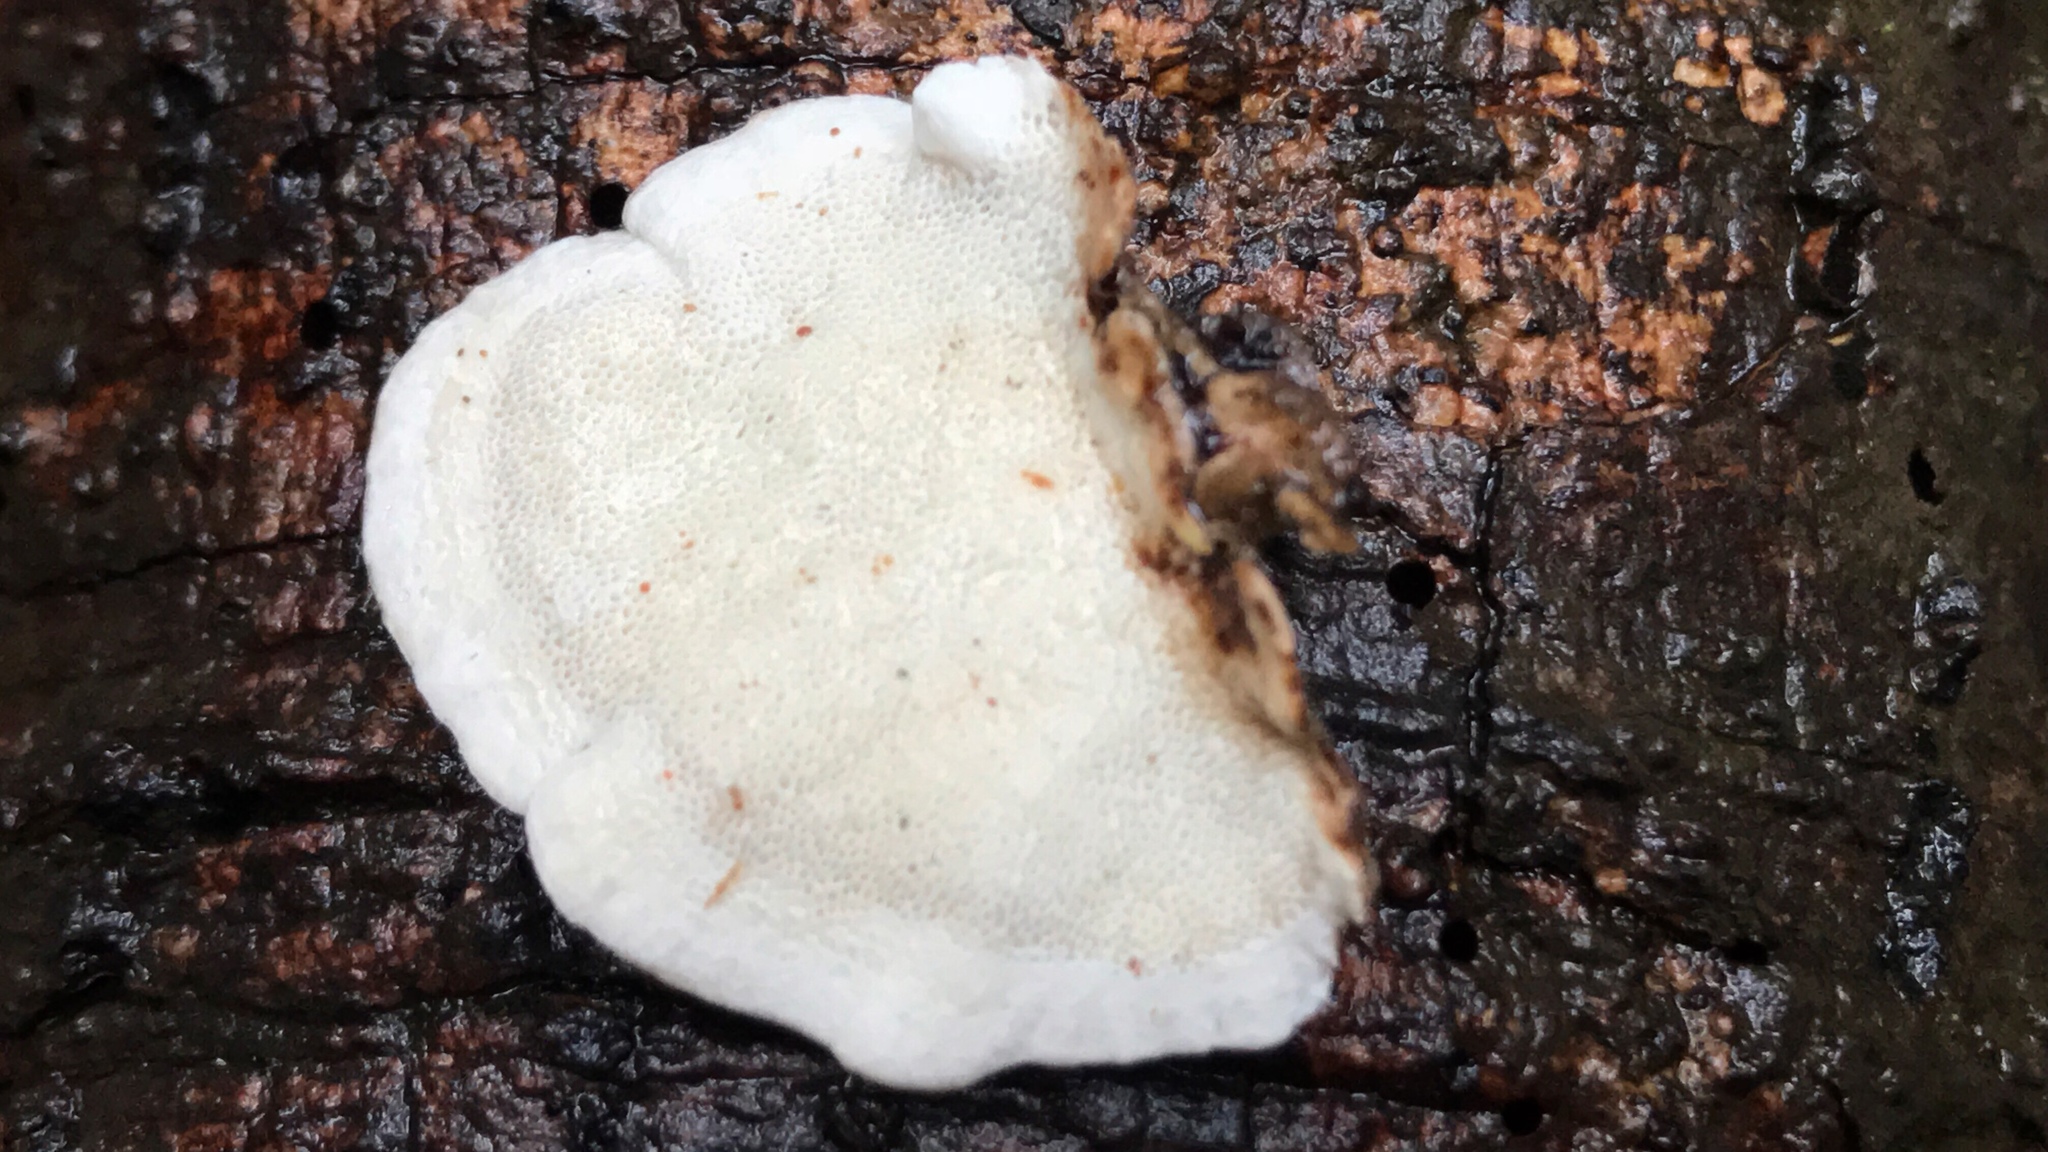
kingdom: Fungi
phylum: Basidiomycota
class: Agaricomycetes
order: Polyporales
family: Polyporaceae
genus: Trametes
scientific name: Trametes versicolor
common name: Turkeytail
